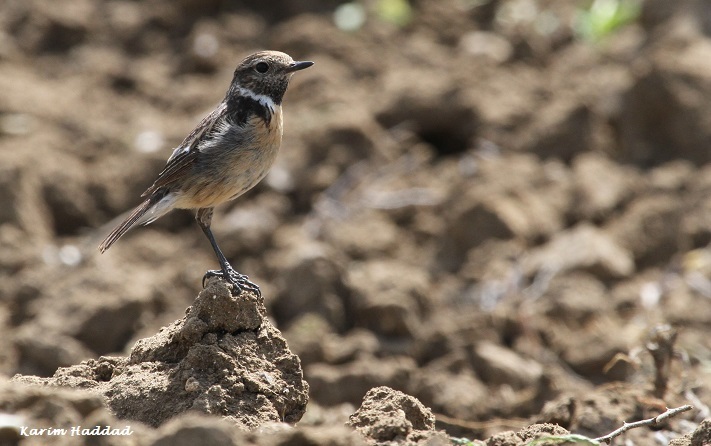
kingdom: Animalia
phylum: Chordata
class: Aves
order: Passeriformes
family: Muscicapidae
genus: Saxicola
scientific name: Saxicola rubicola
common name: European stonechat
